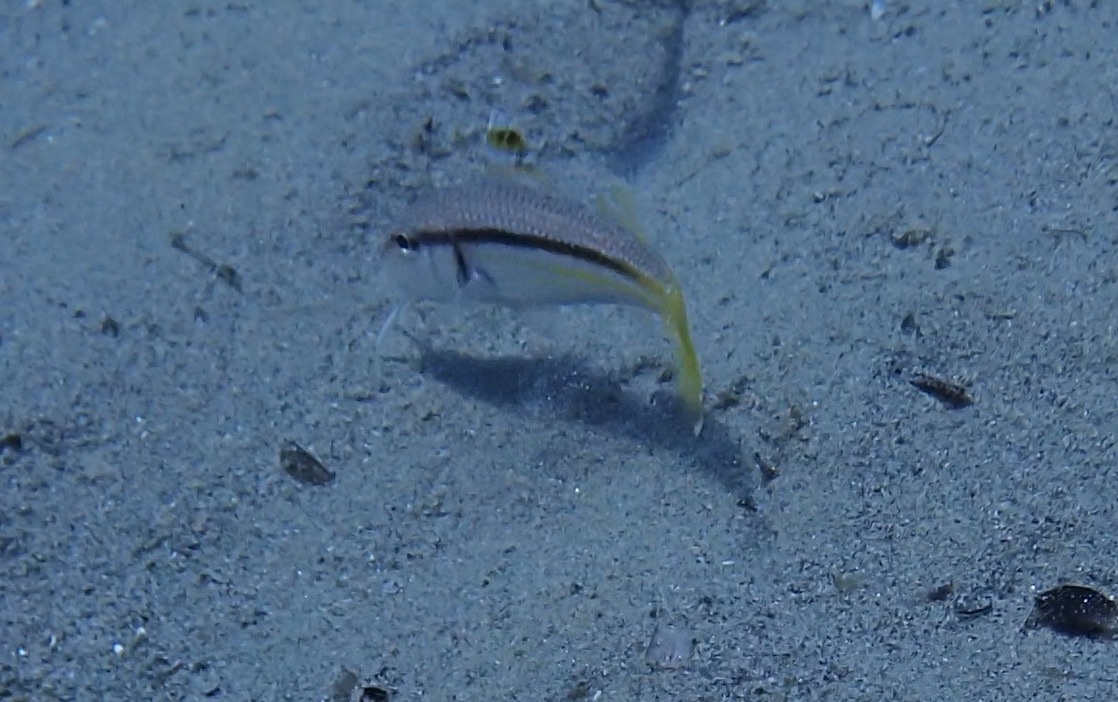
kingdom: Animalia
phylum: Chordata
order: Perciformes
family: Mullidae
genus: Mullus
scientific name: Mullus surmuletus
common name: Red mullet
